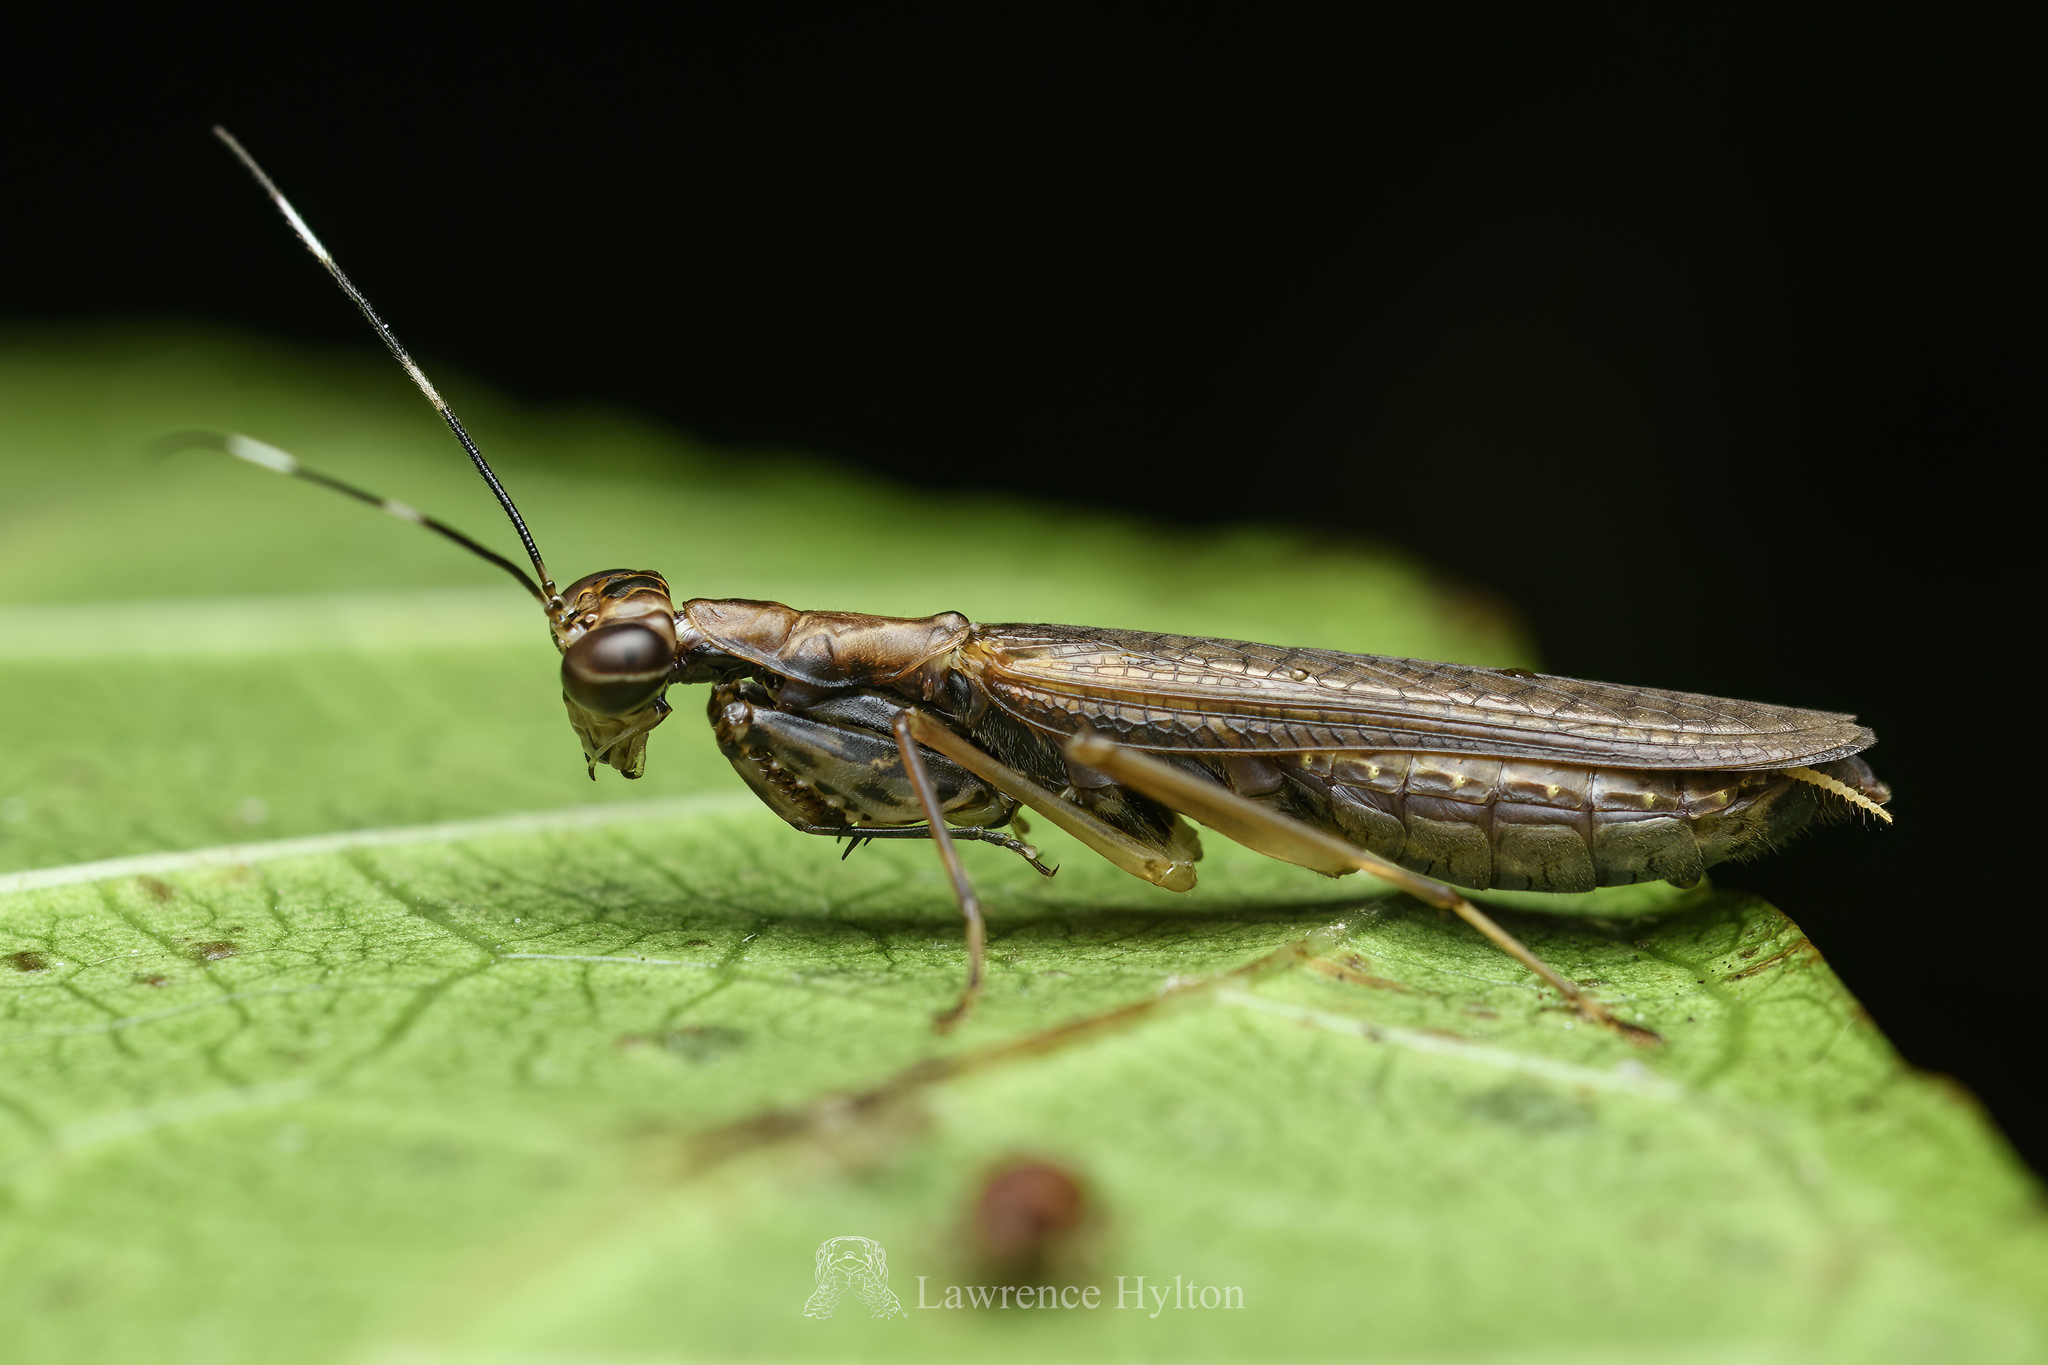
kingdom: Animalia
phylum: Arthropoda
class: Insecta
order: Mantodea
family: Gonypetidae
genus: Spilomantis
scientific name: Spilomantis occipitalis
